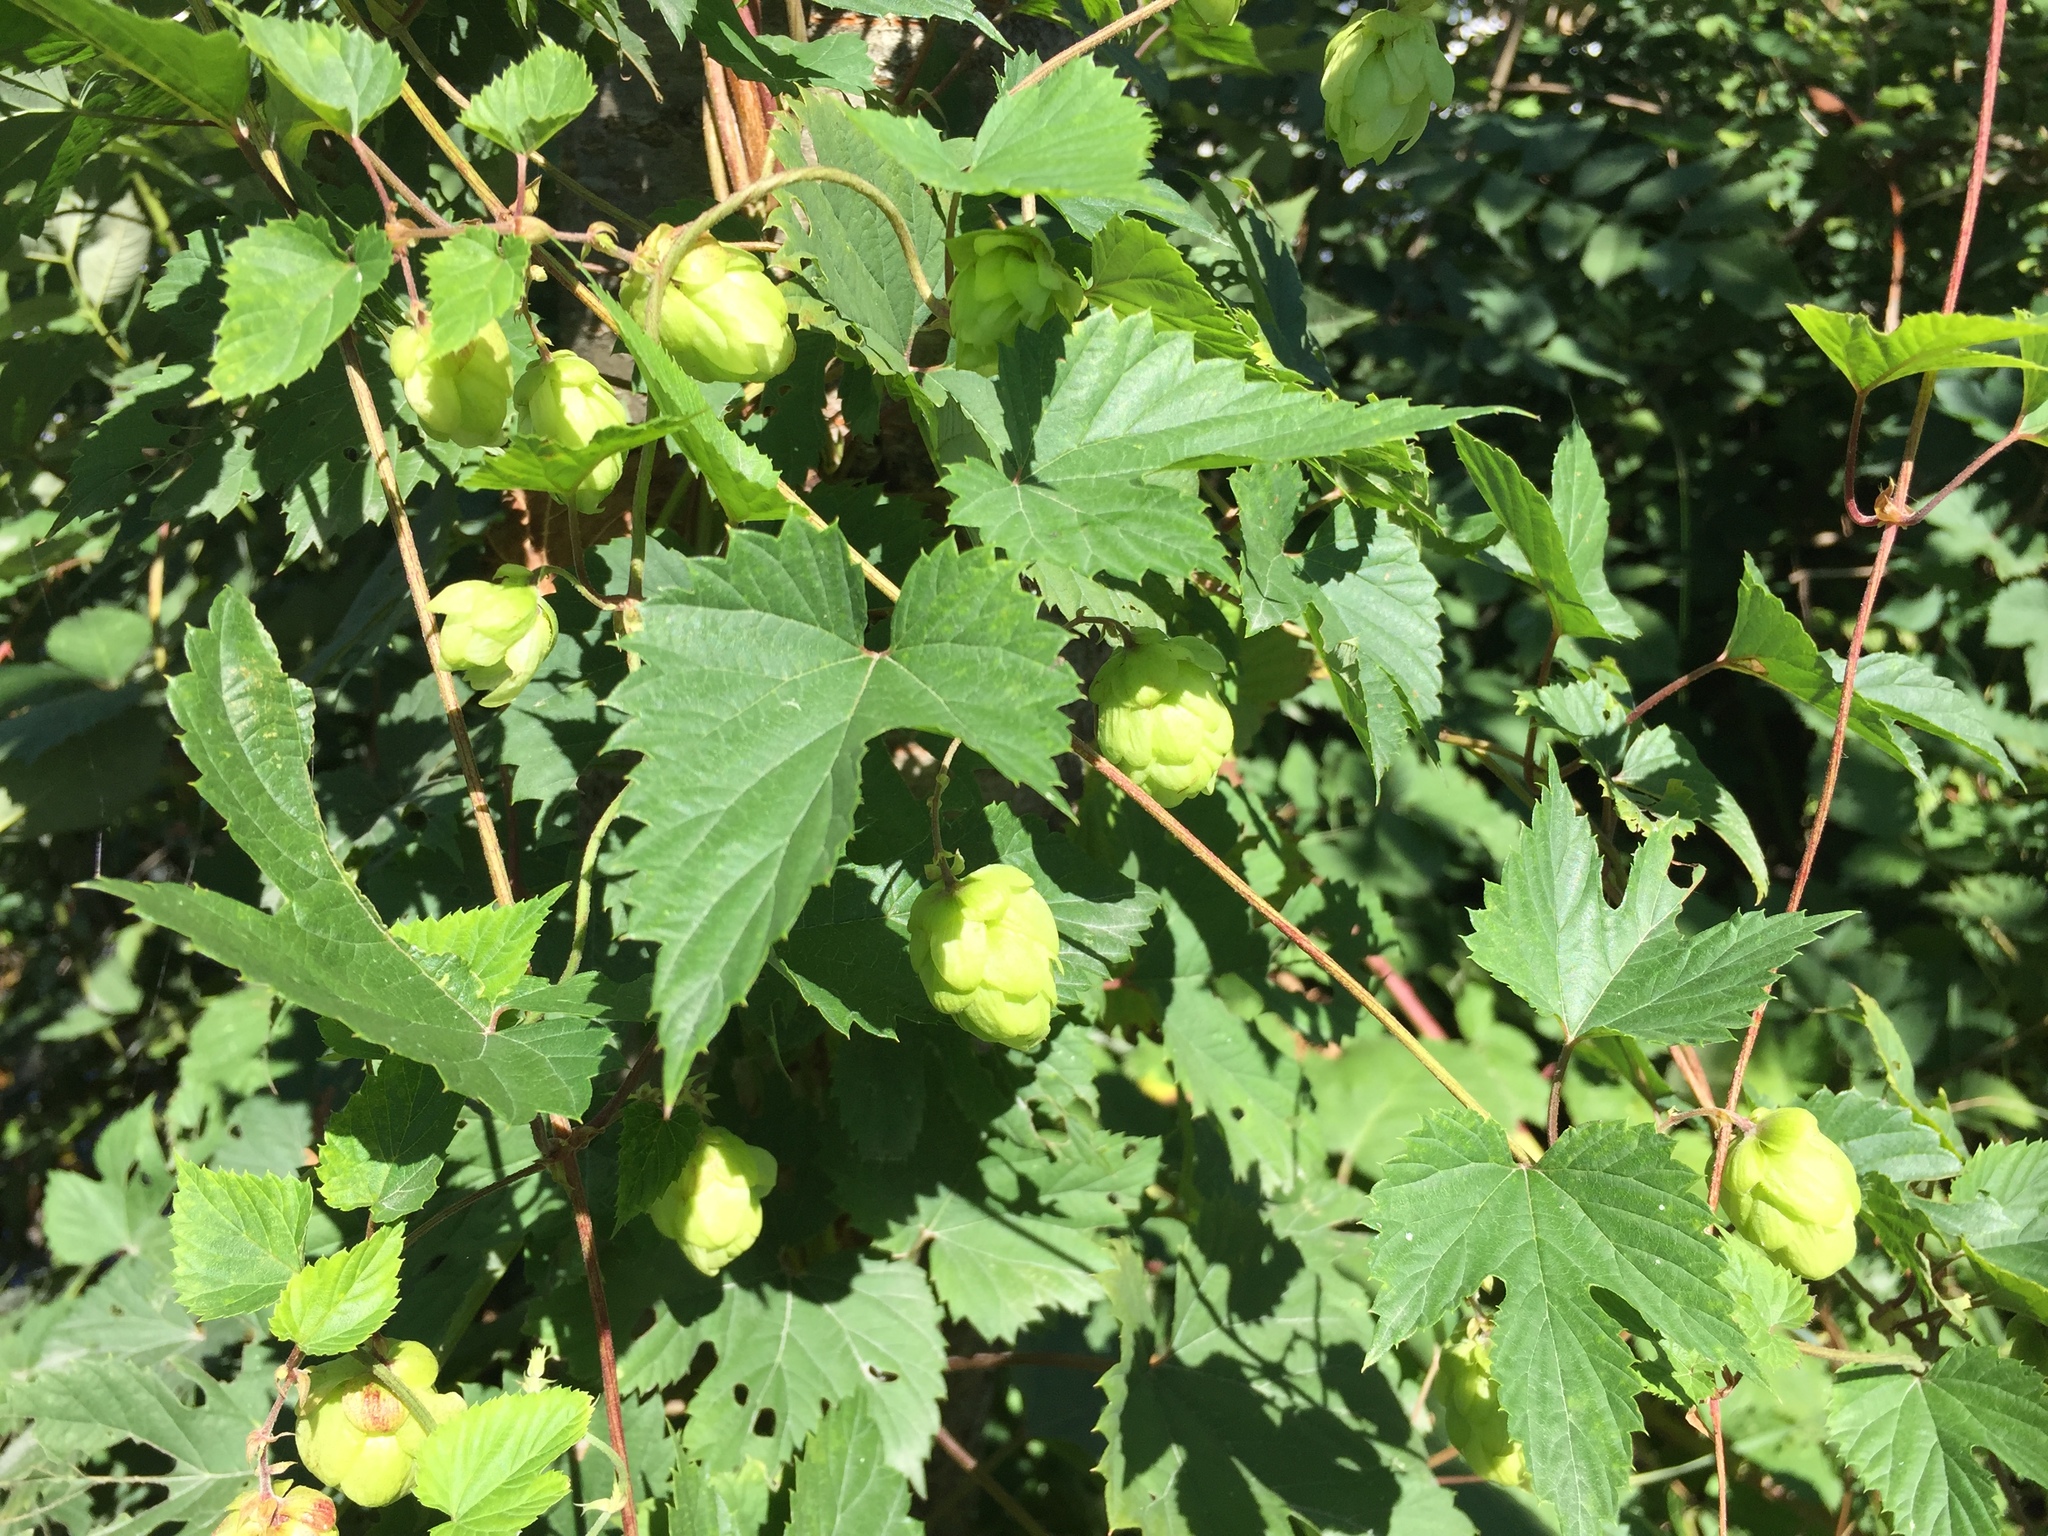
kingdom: Plantae
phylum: Tracheophyta
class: Magnoliopsida
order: Rosales
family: Cannabaceae
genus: Humulus
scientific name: Humulus lupulus
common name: Hop
